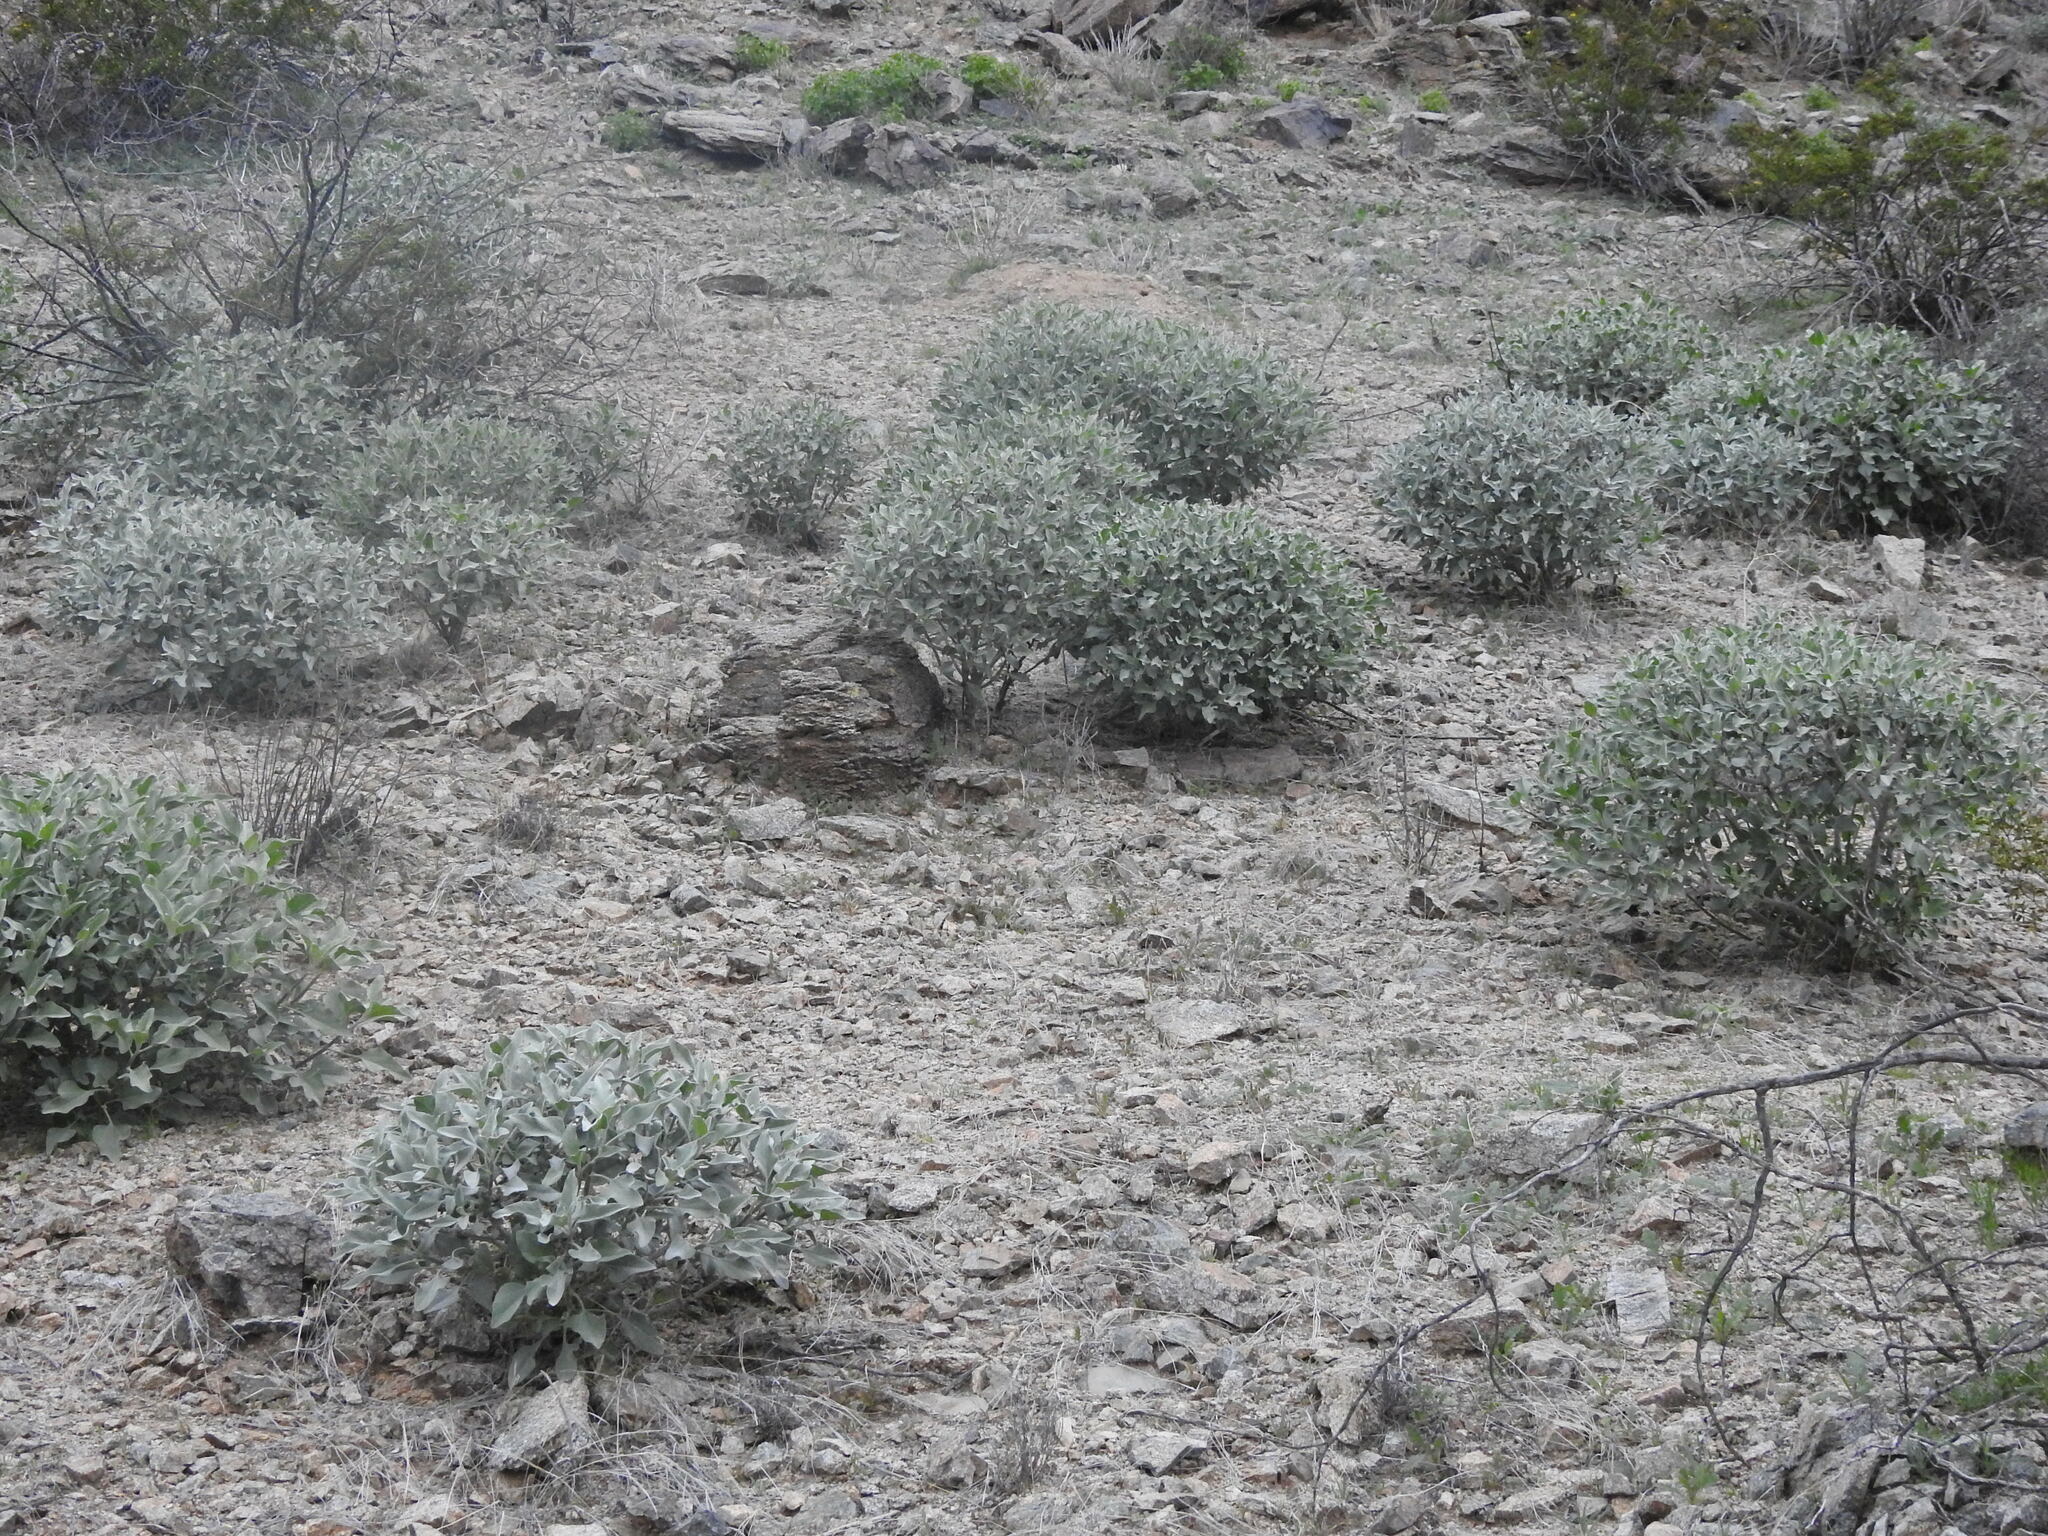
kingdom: Plantae
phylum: Tracheophyta
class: Magnoliopsida
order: Asterales
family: Asteraceae
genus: Encelia
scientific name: Encelia farinosa
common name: Brittlebush
